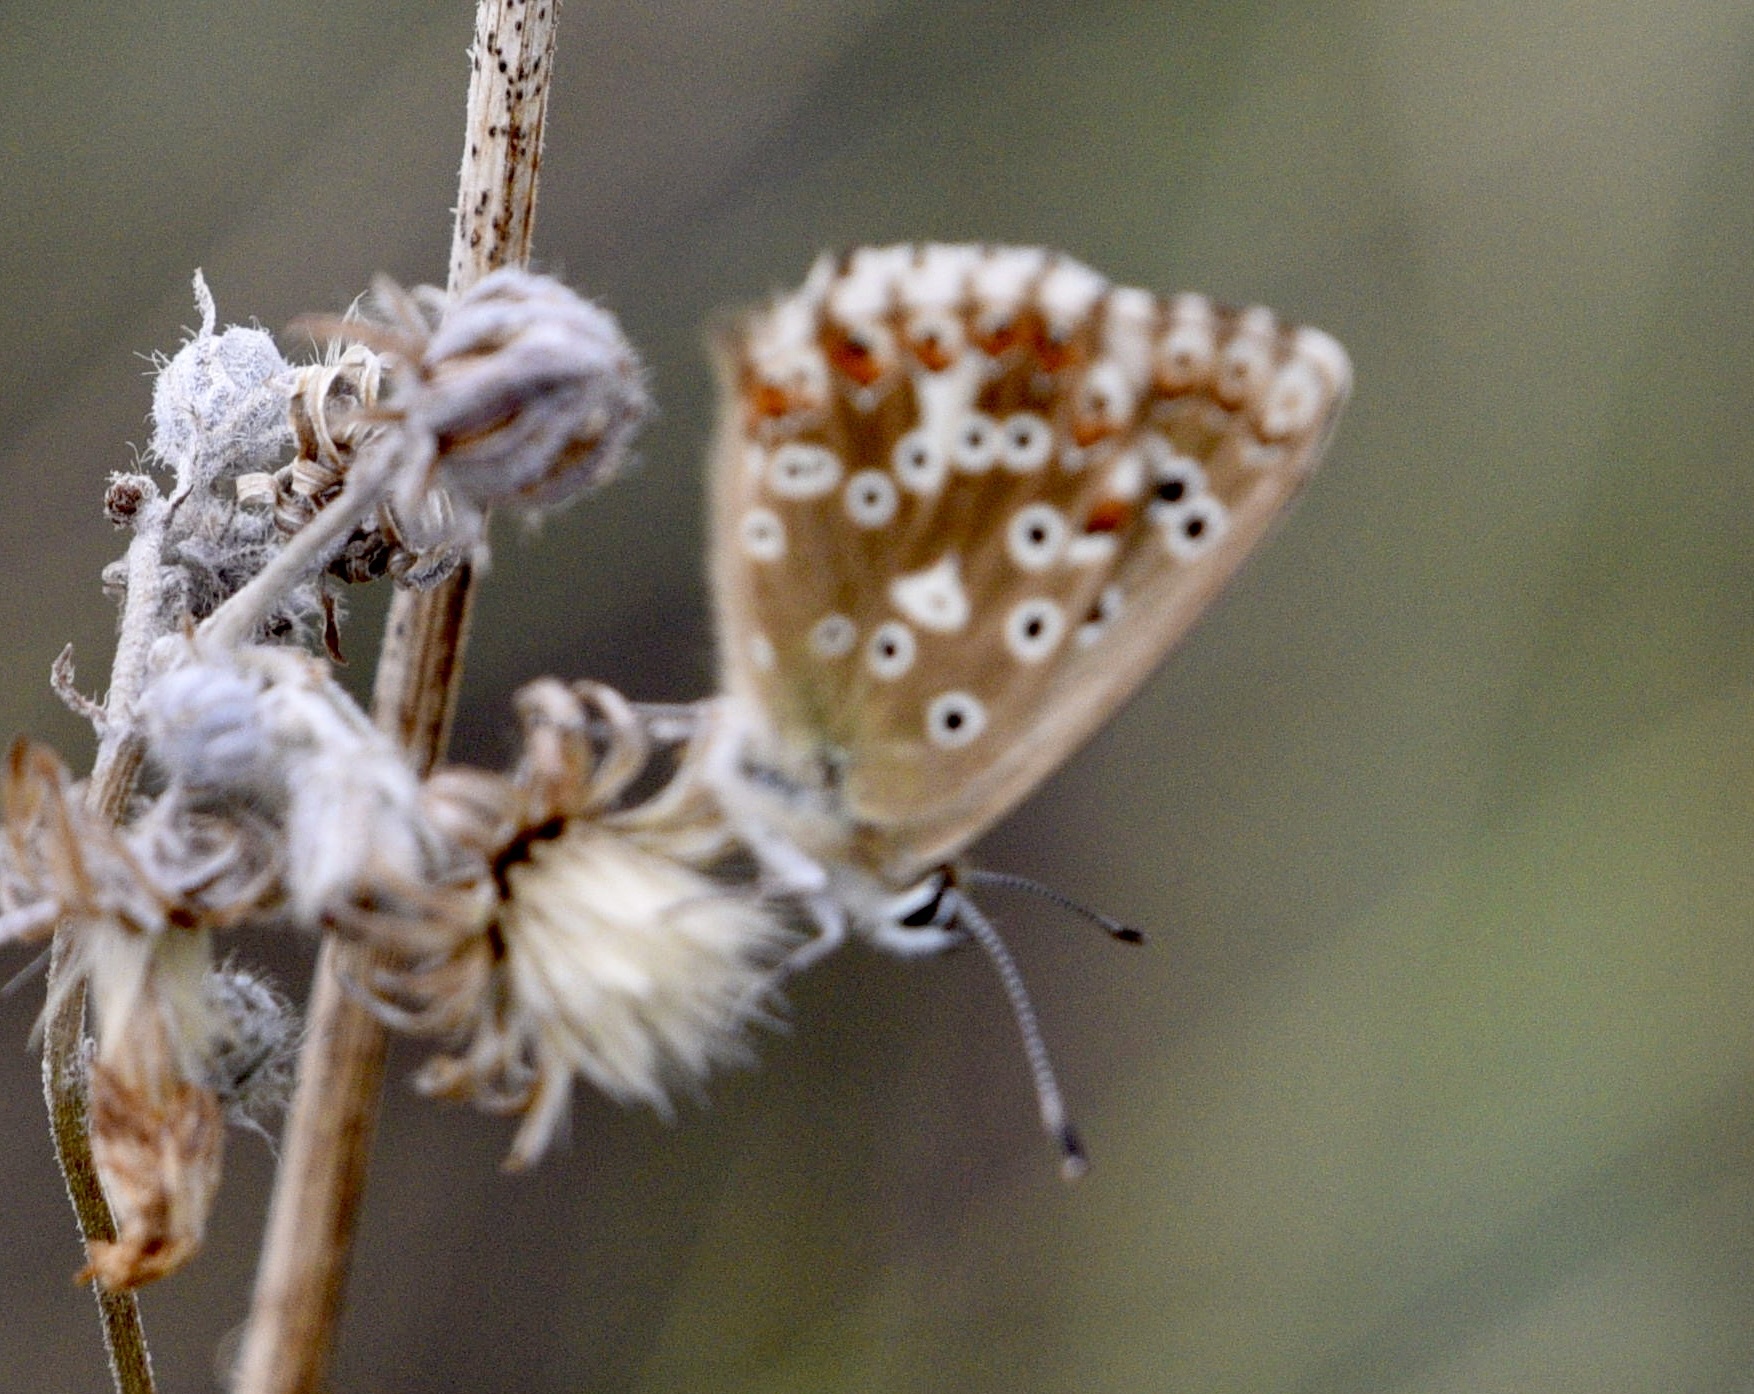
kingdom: Animalia
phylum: Arthropoda
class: Insecta
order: Lepidoptera
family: Lycaenidae
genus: Lysandra
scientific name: Lysandra coridon
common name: Chalkhill blue
